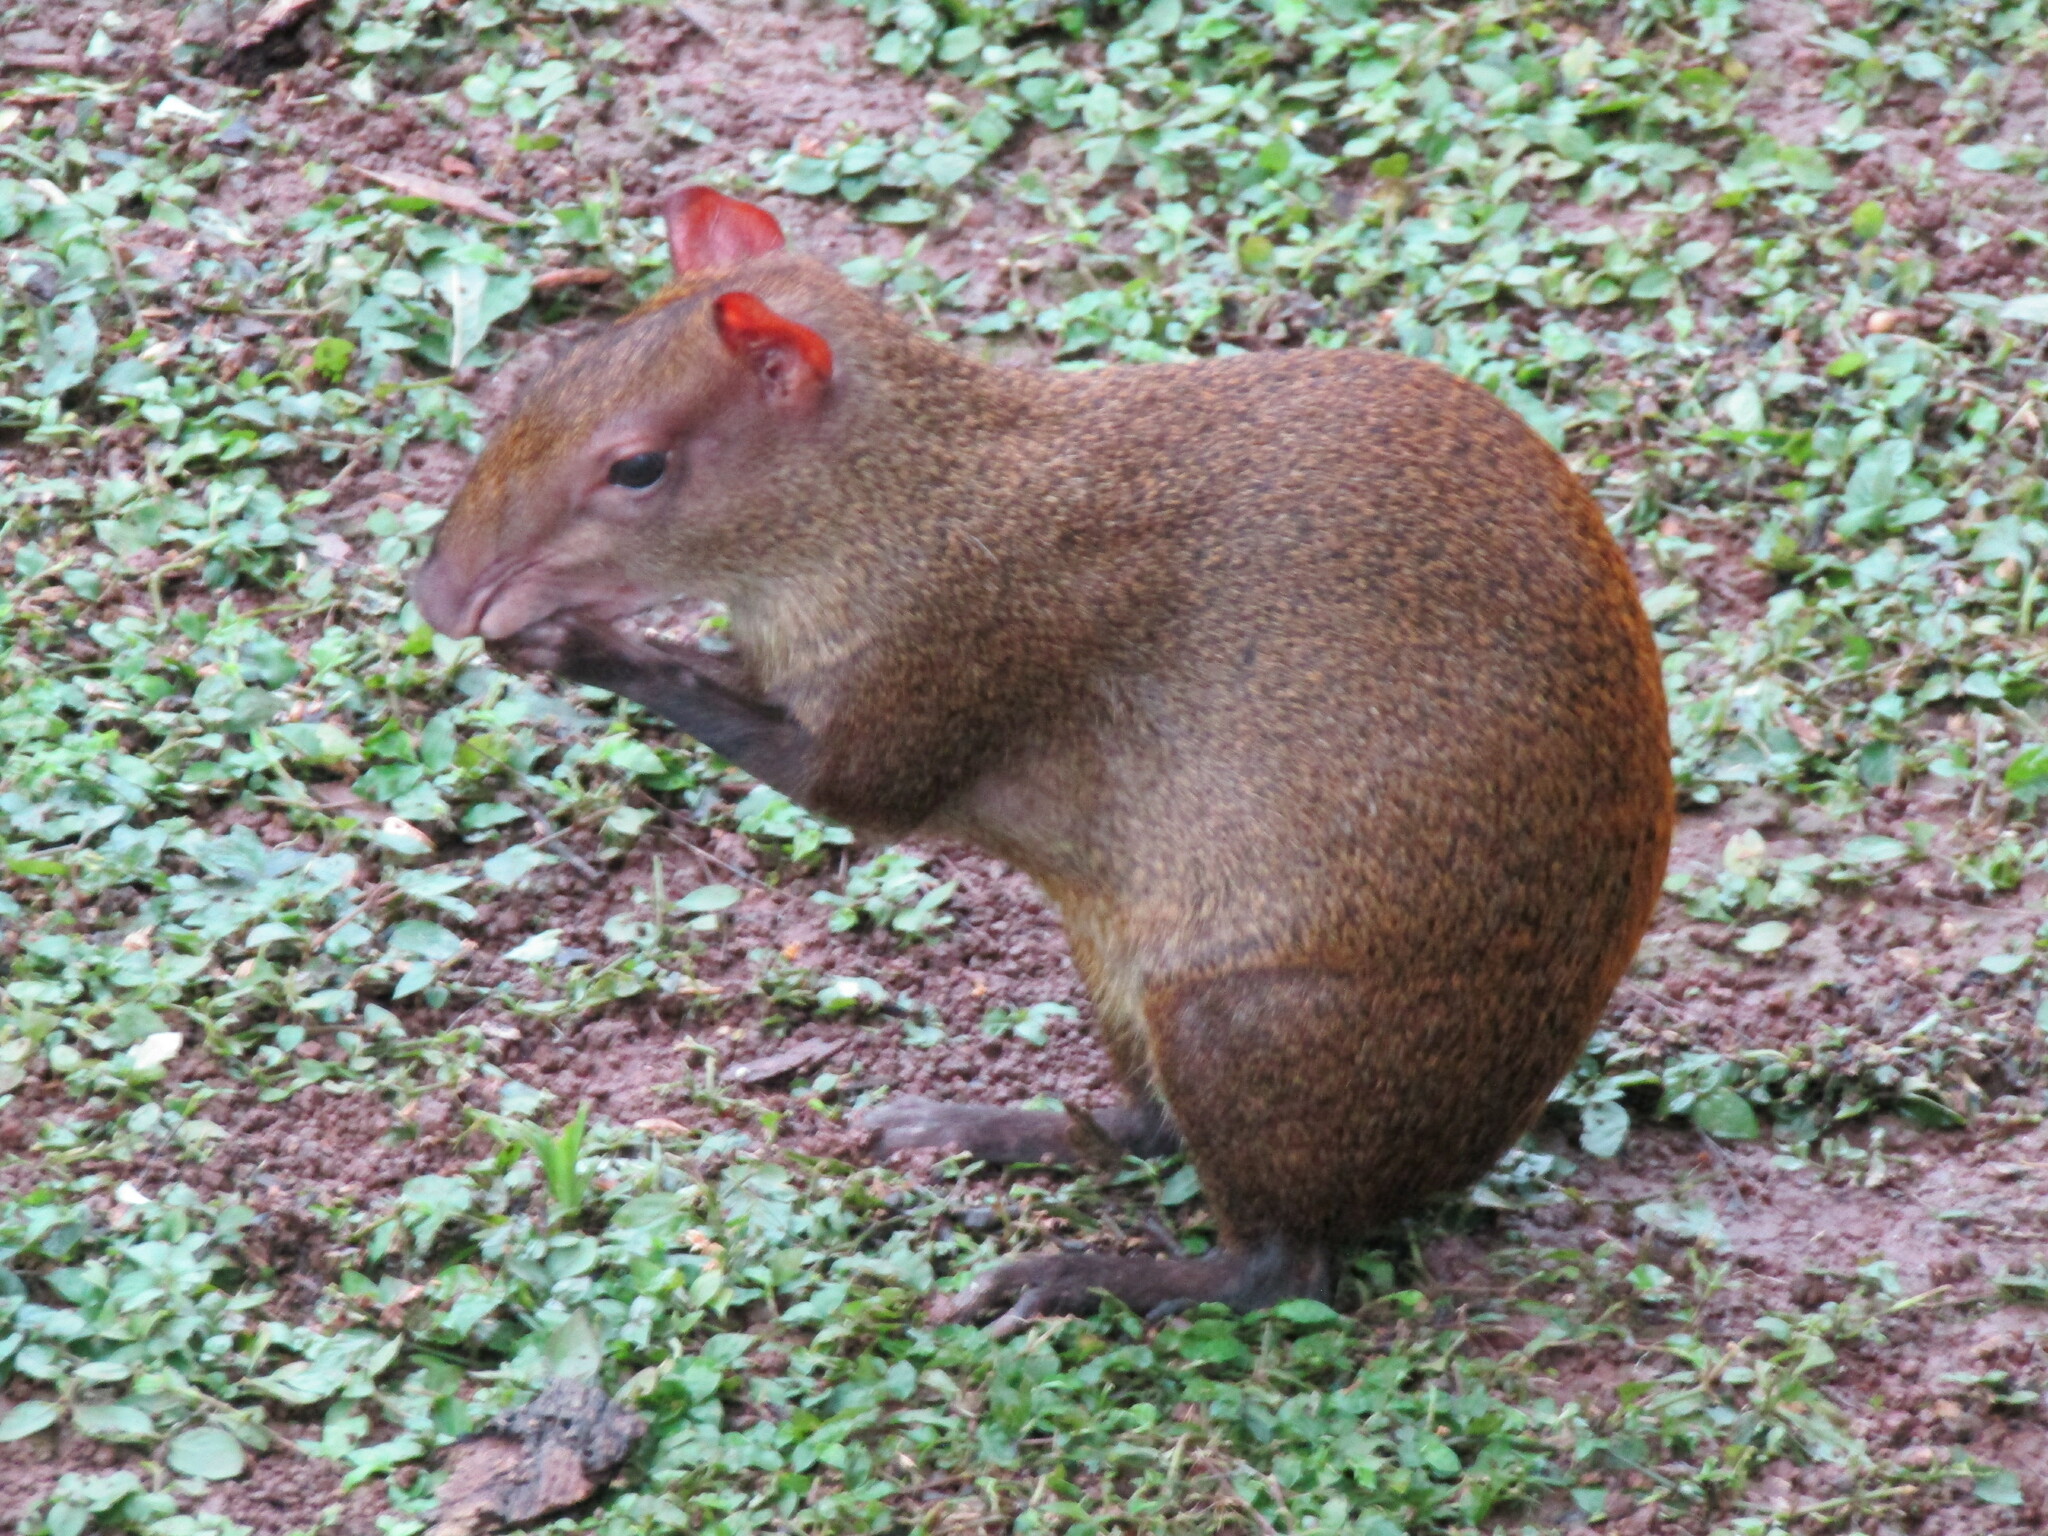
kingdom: Animalia
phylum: Chordata
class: Mammalia
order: Rodentia
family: Dasyproctidae
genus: Dasyprocta
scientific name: Dasyprocta punctata
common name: Central american agouti
